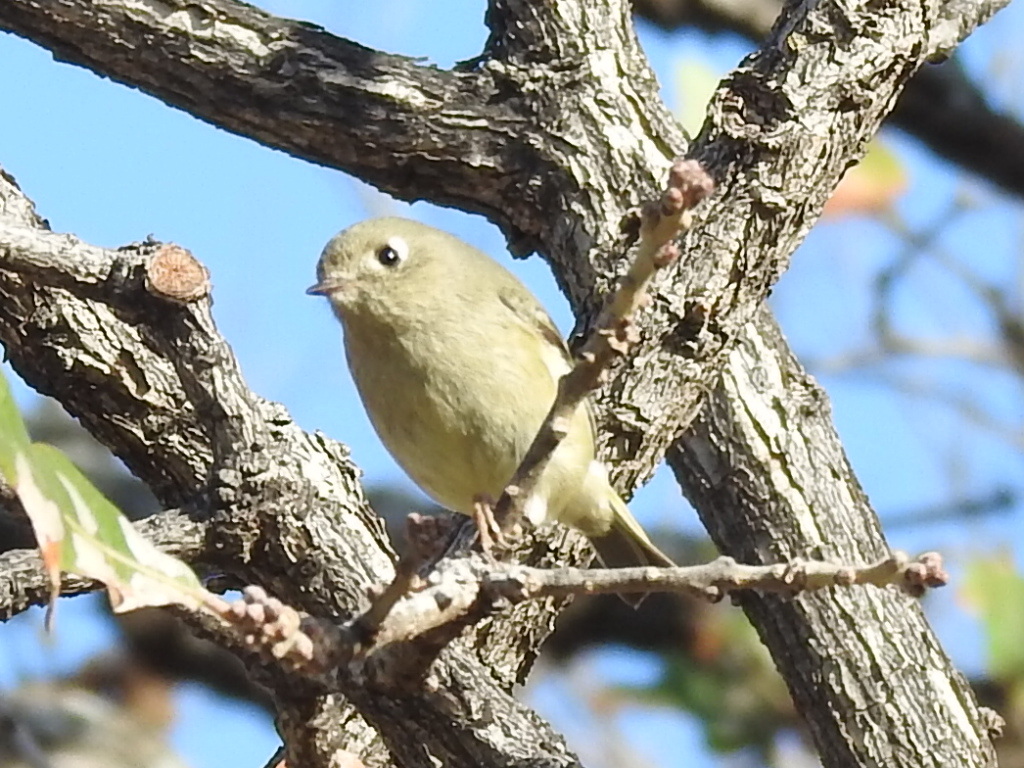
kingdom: Animalia
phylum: Chordata
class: Aves
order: Passeriformes
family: Regulidae
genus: Regulus
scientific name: Regulus calendula
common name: Ruby-crowned kinglet
